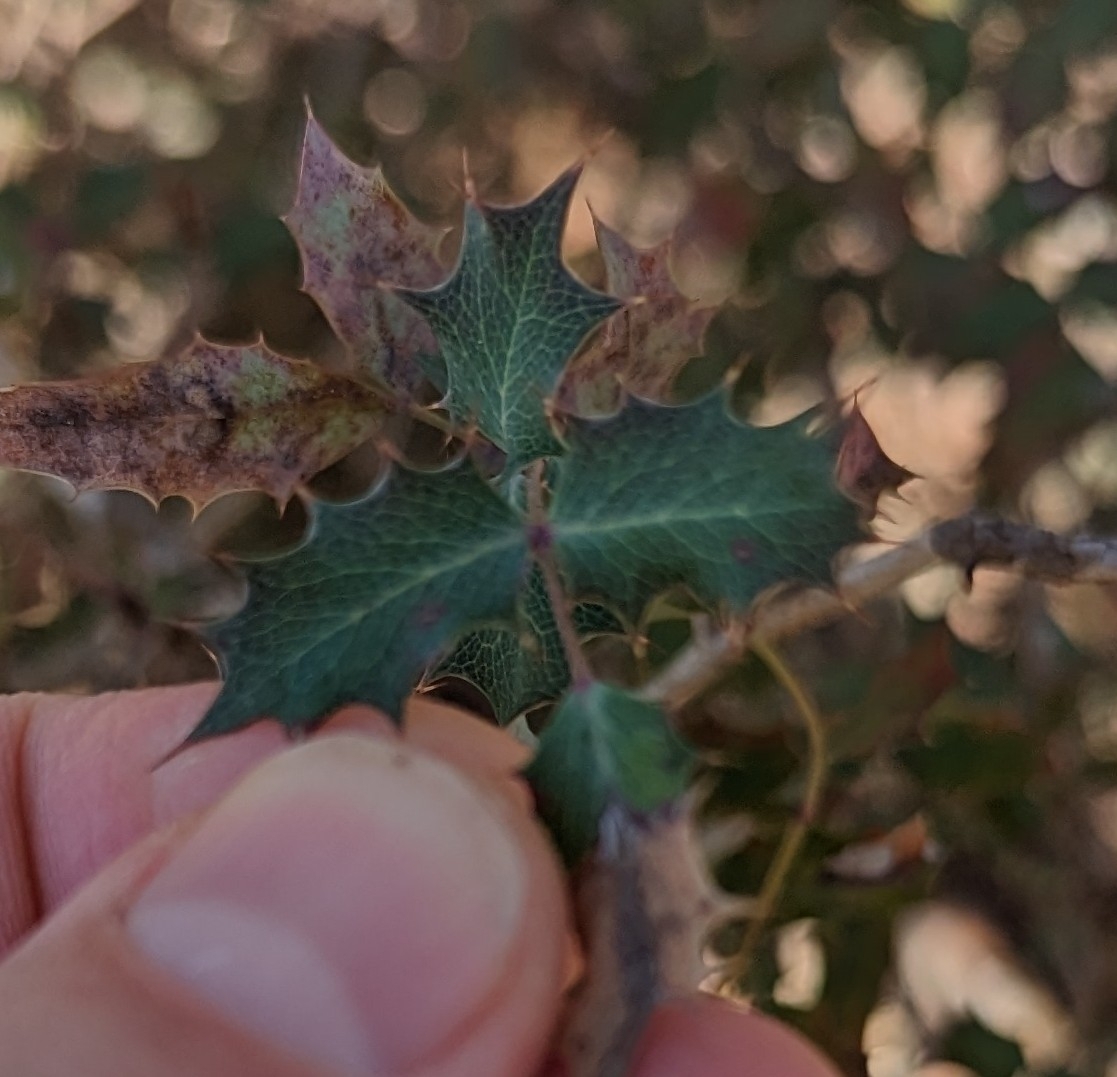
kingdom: Plantae
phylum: Tracheophyta
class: Magnoliopsida
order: Ranunculales
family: Berberidaceae
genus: Berberis
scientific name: Berberis swaseyi
